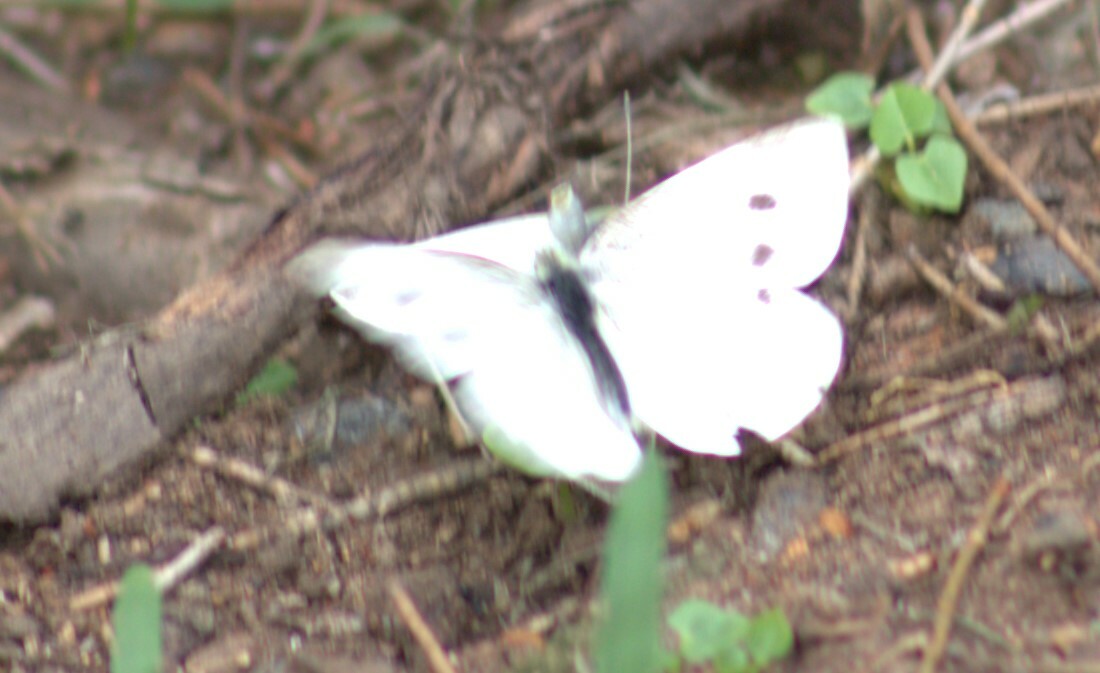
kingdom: Animalia
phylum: Arthropoda
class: Insecta
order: Lepidoptera
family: Pieridae
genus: Pieris
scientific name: Pieris rapae
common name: Small white
